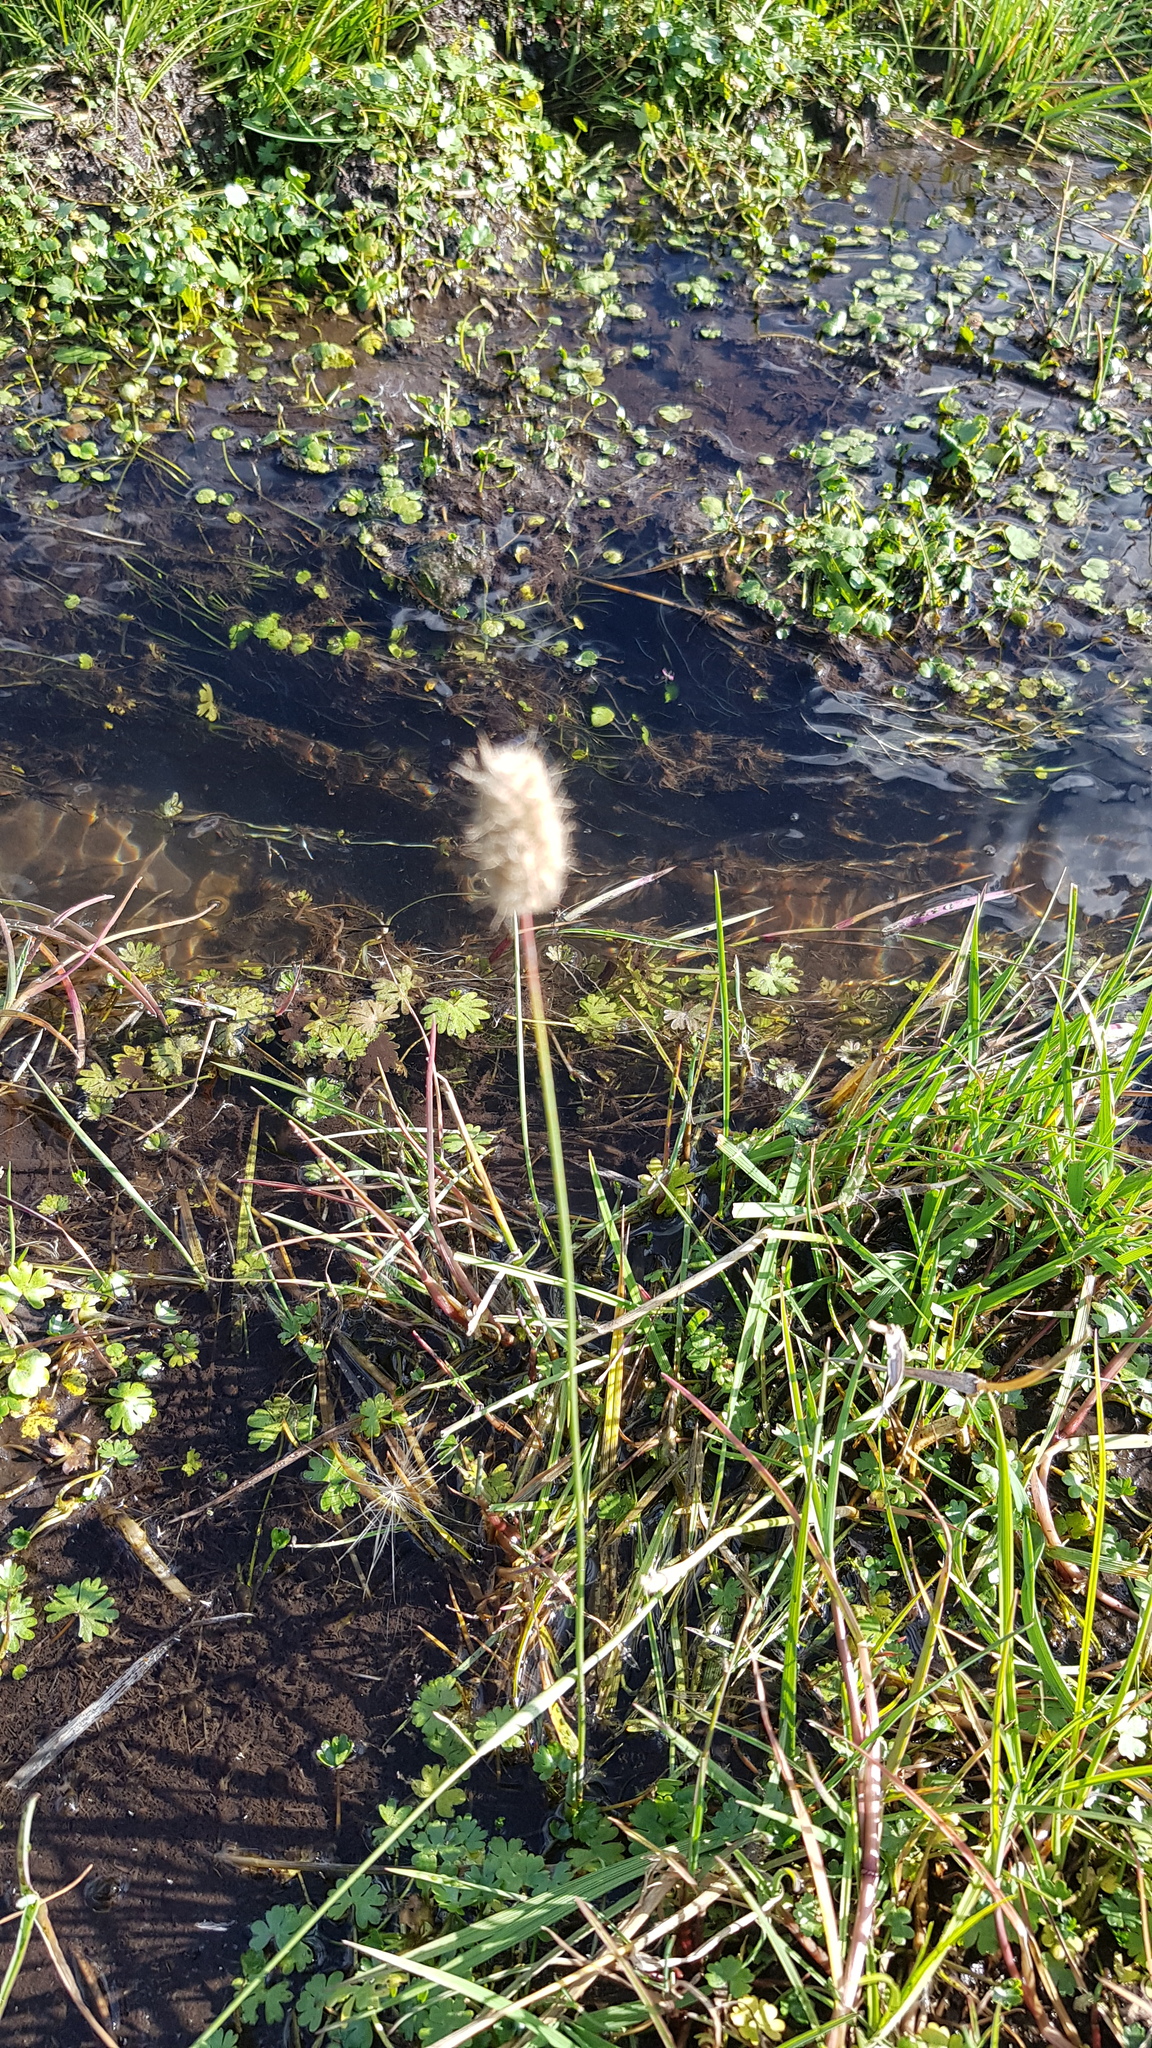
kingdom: Plantae
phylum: Tracheophyta
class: Liliopsida
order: Poales
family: Poaceae
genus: Alopecurus
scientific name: Alopecurus brachystachyus
